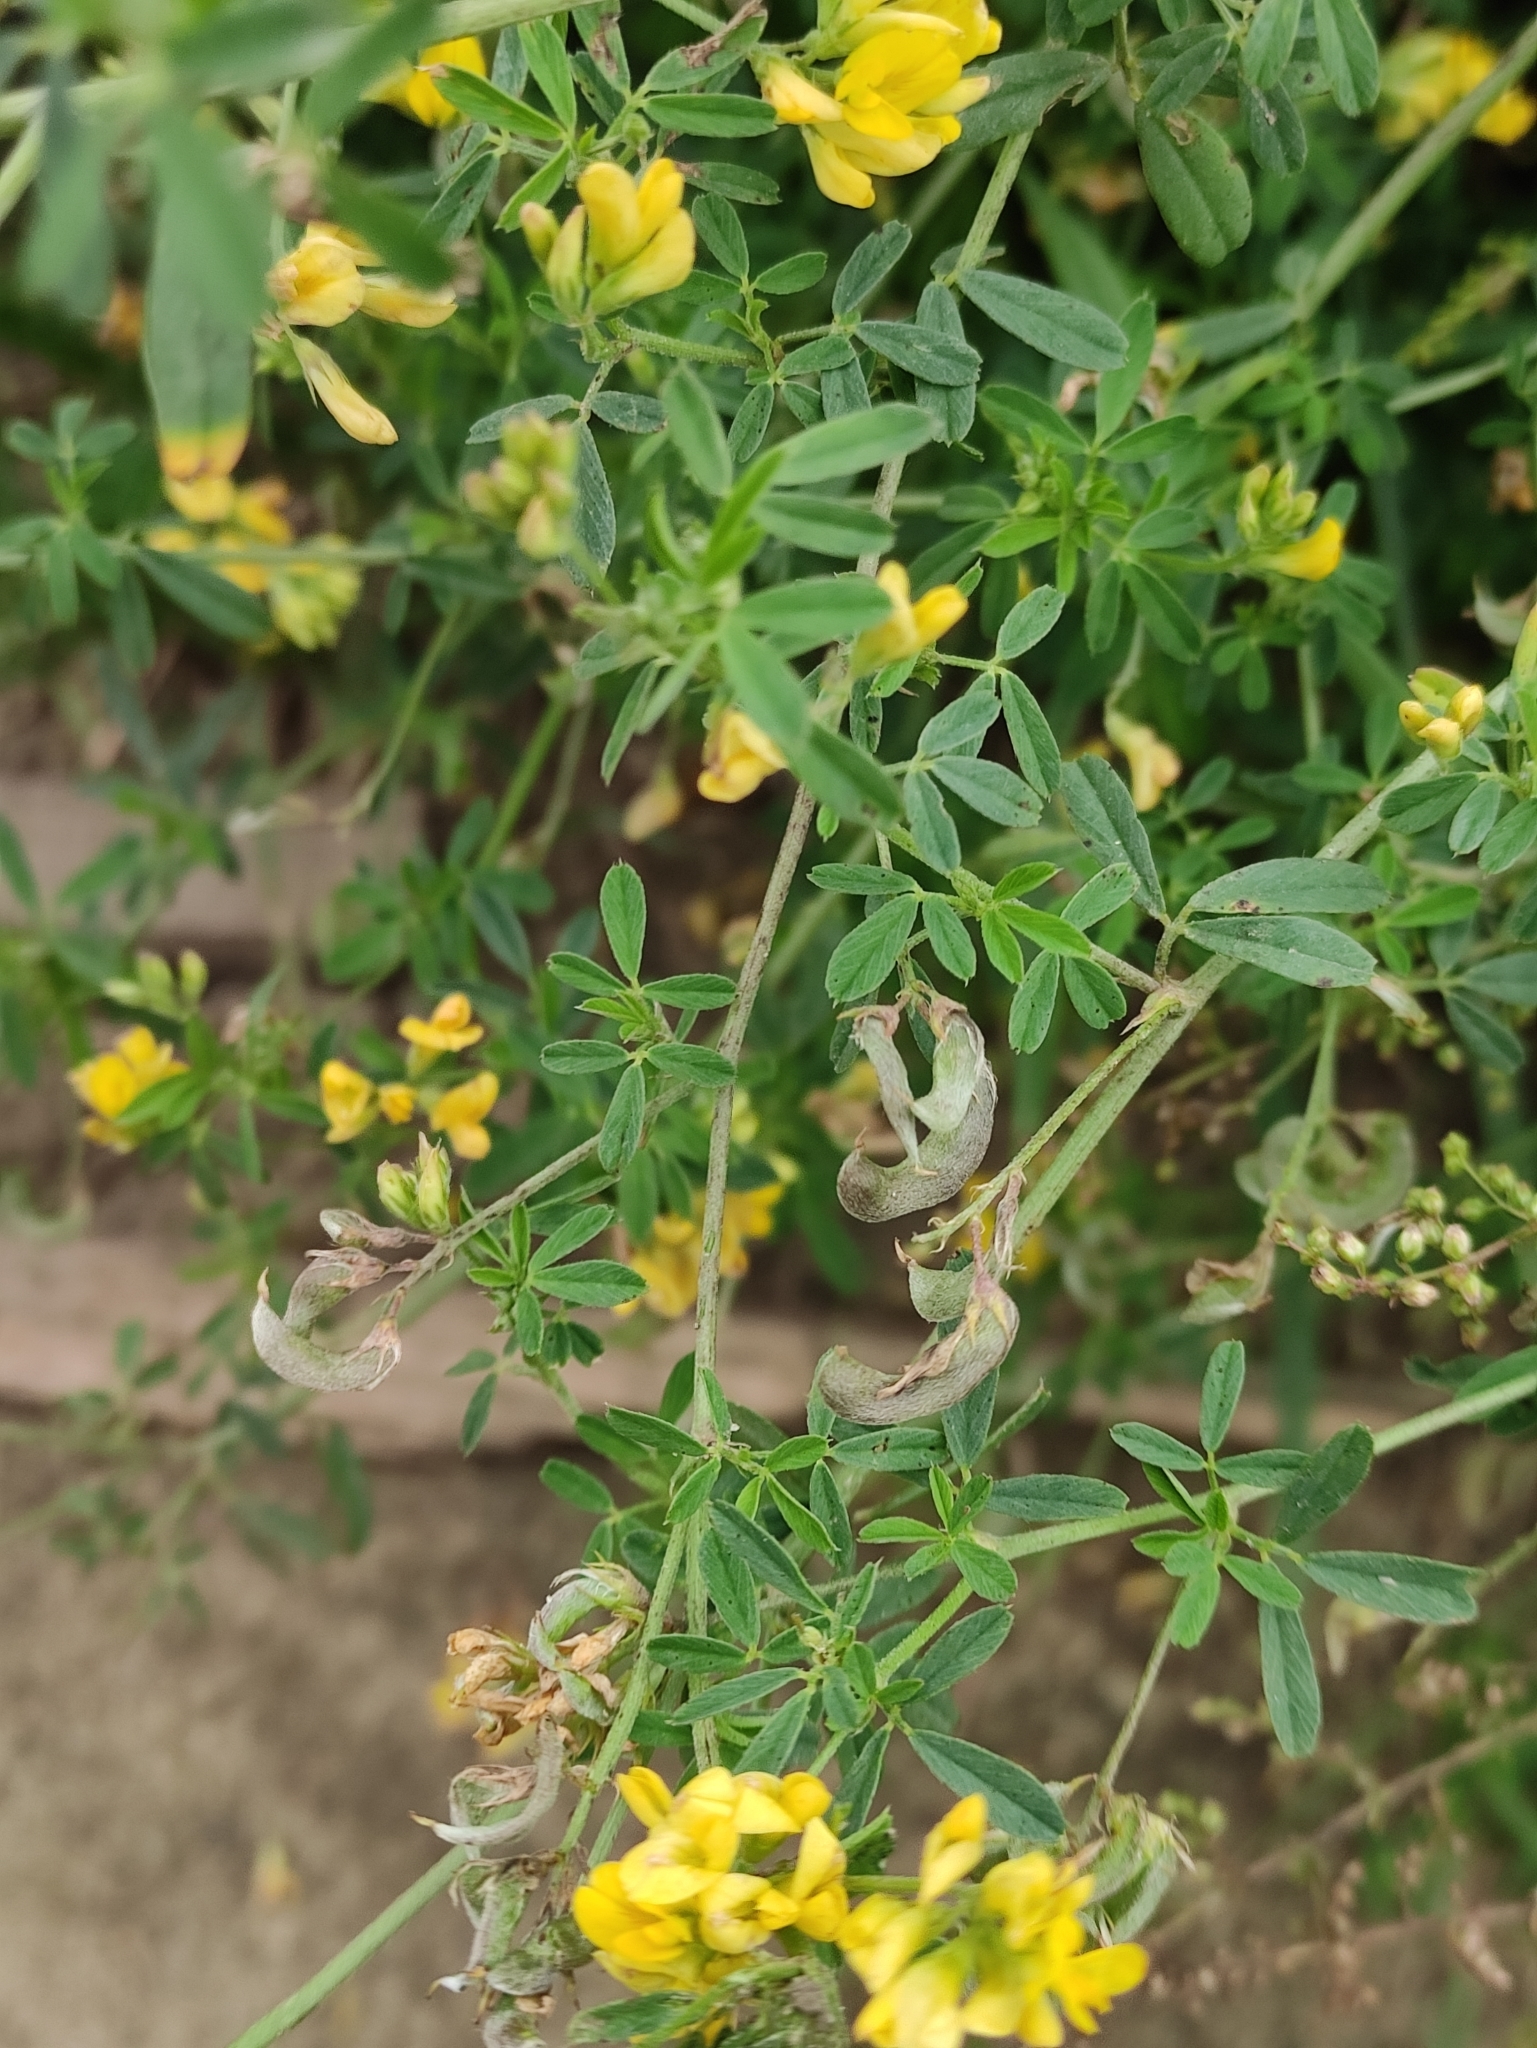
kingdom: Plantae
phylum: Tracheophyta
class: Magnoliopsida
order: Fabales
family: Fabaceae
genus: Medicago
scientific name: Medicago falcata
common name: Sickle medick
